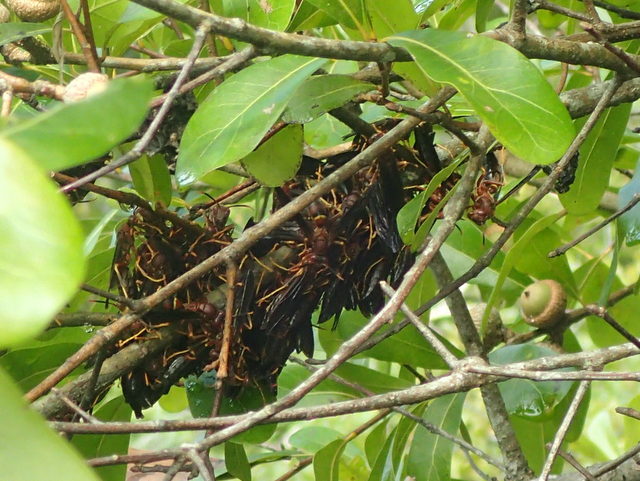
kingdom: Animalia
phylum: Arthropoda
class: Insecta
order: Hymenoptera
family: Eumenidae
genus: Polistes
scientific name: Polistes annularis
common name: Ringed paper wasp
